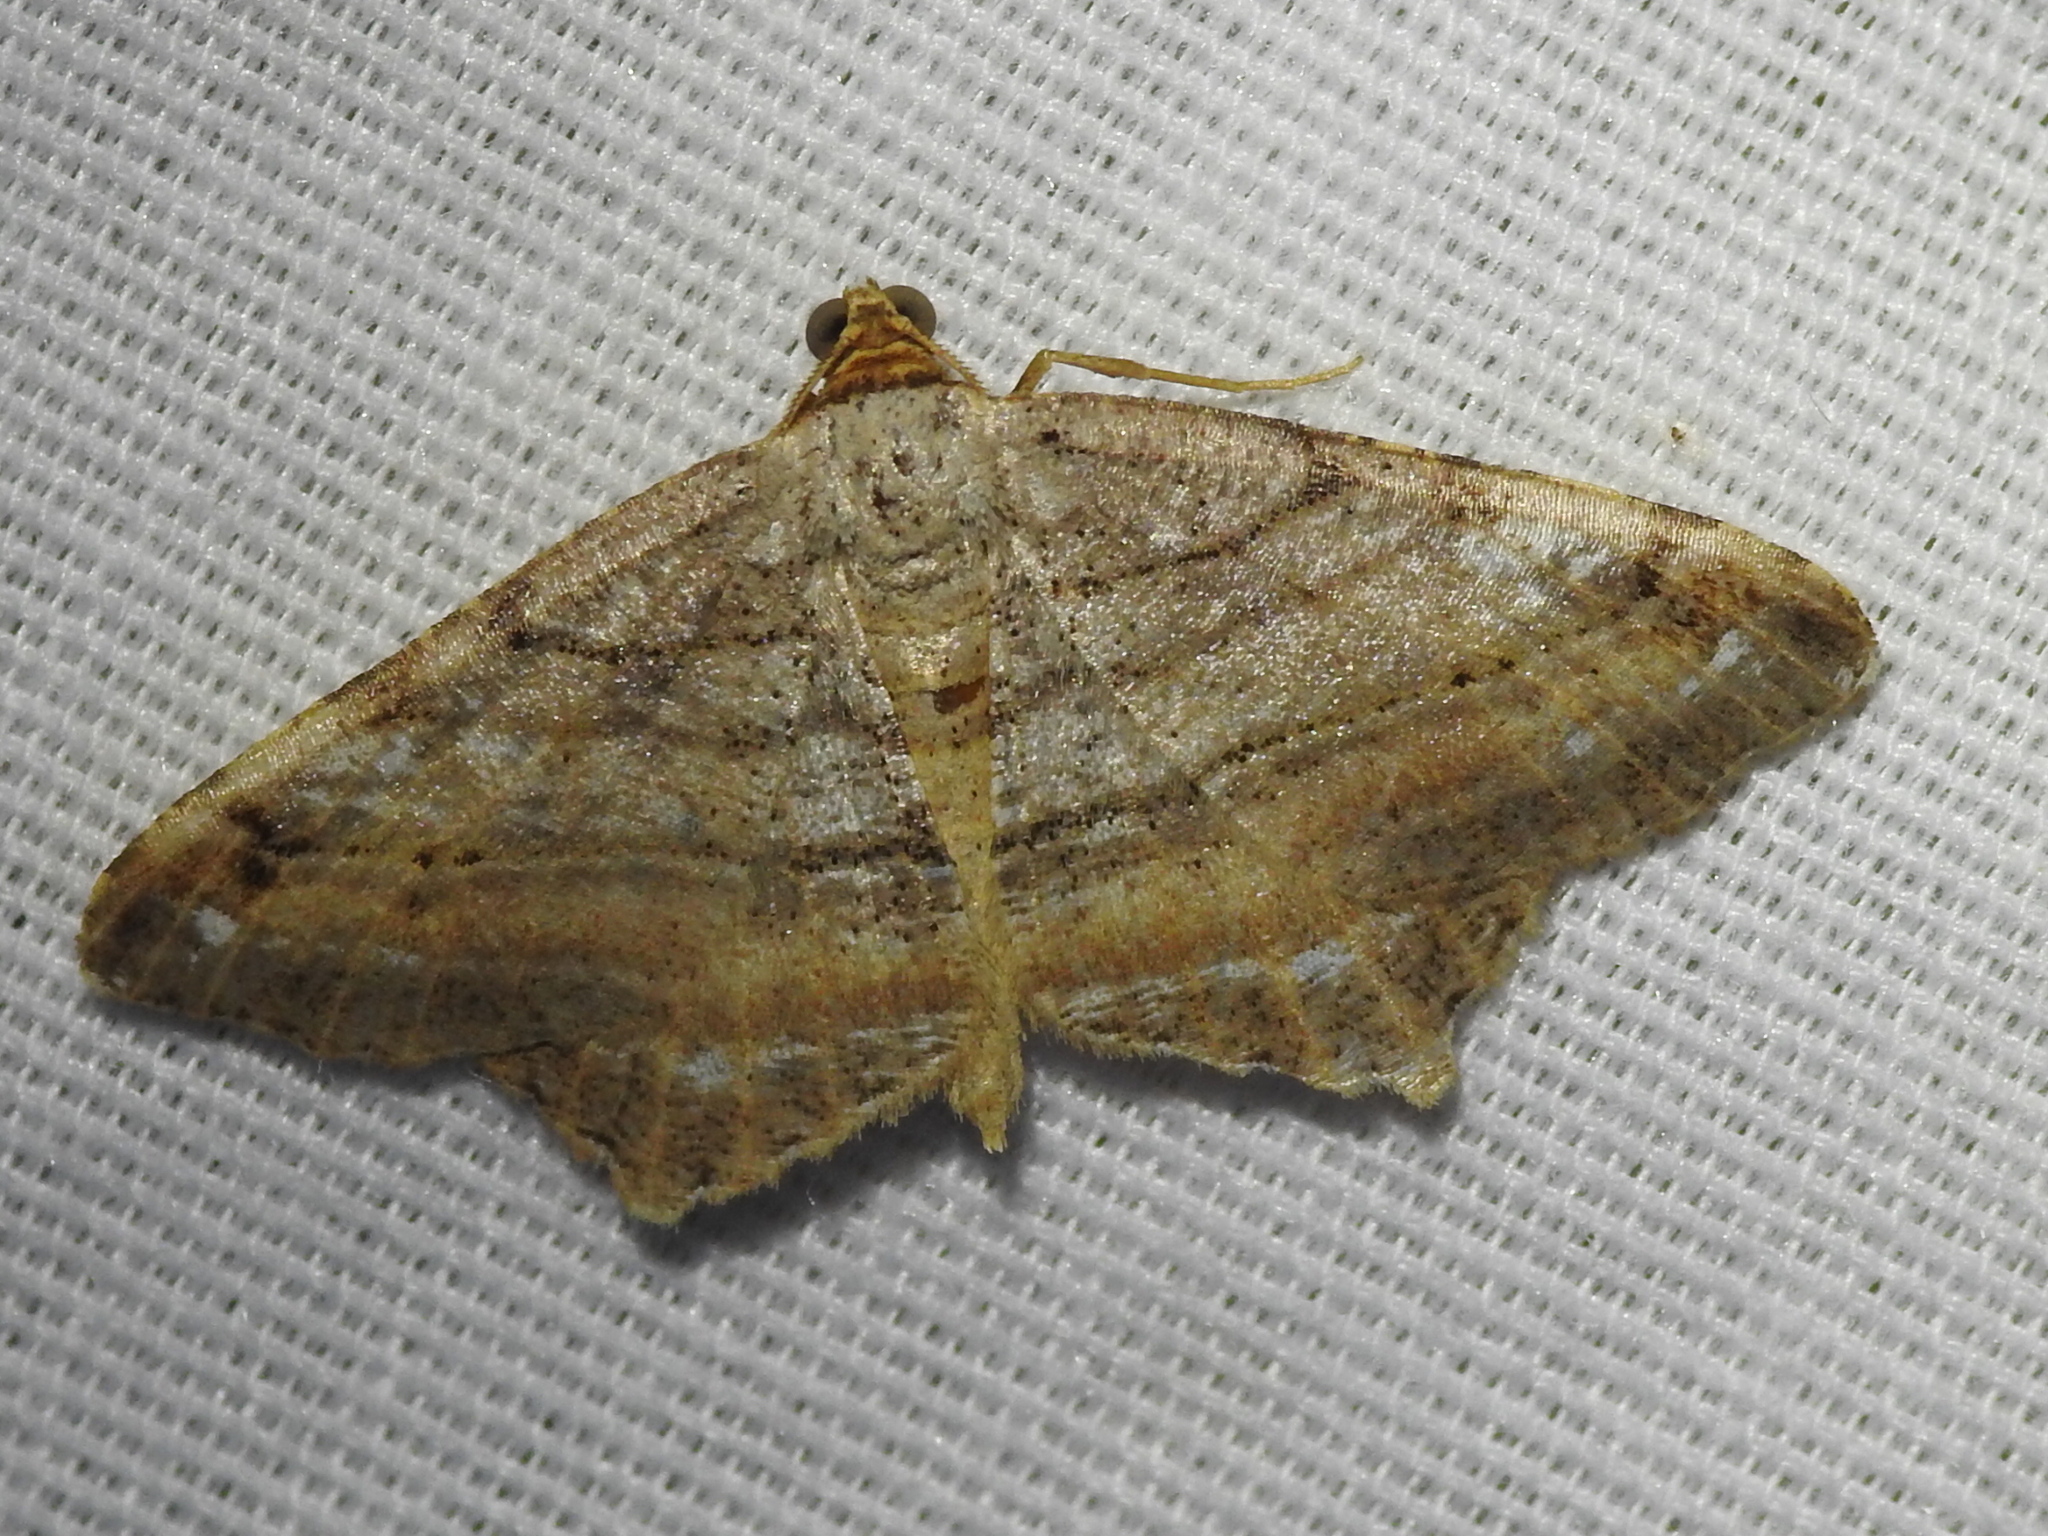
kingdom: Animalia
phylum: Arthropoda
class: Insecta
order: Lepidoptera
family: Geometridae
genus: Macaria
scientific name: Macaria multilineata
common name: Many-lined angle
